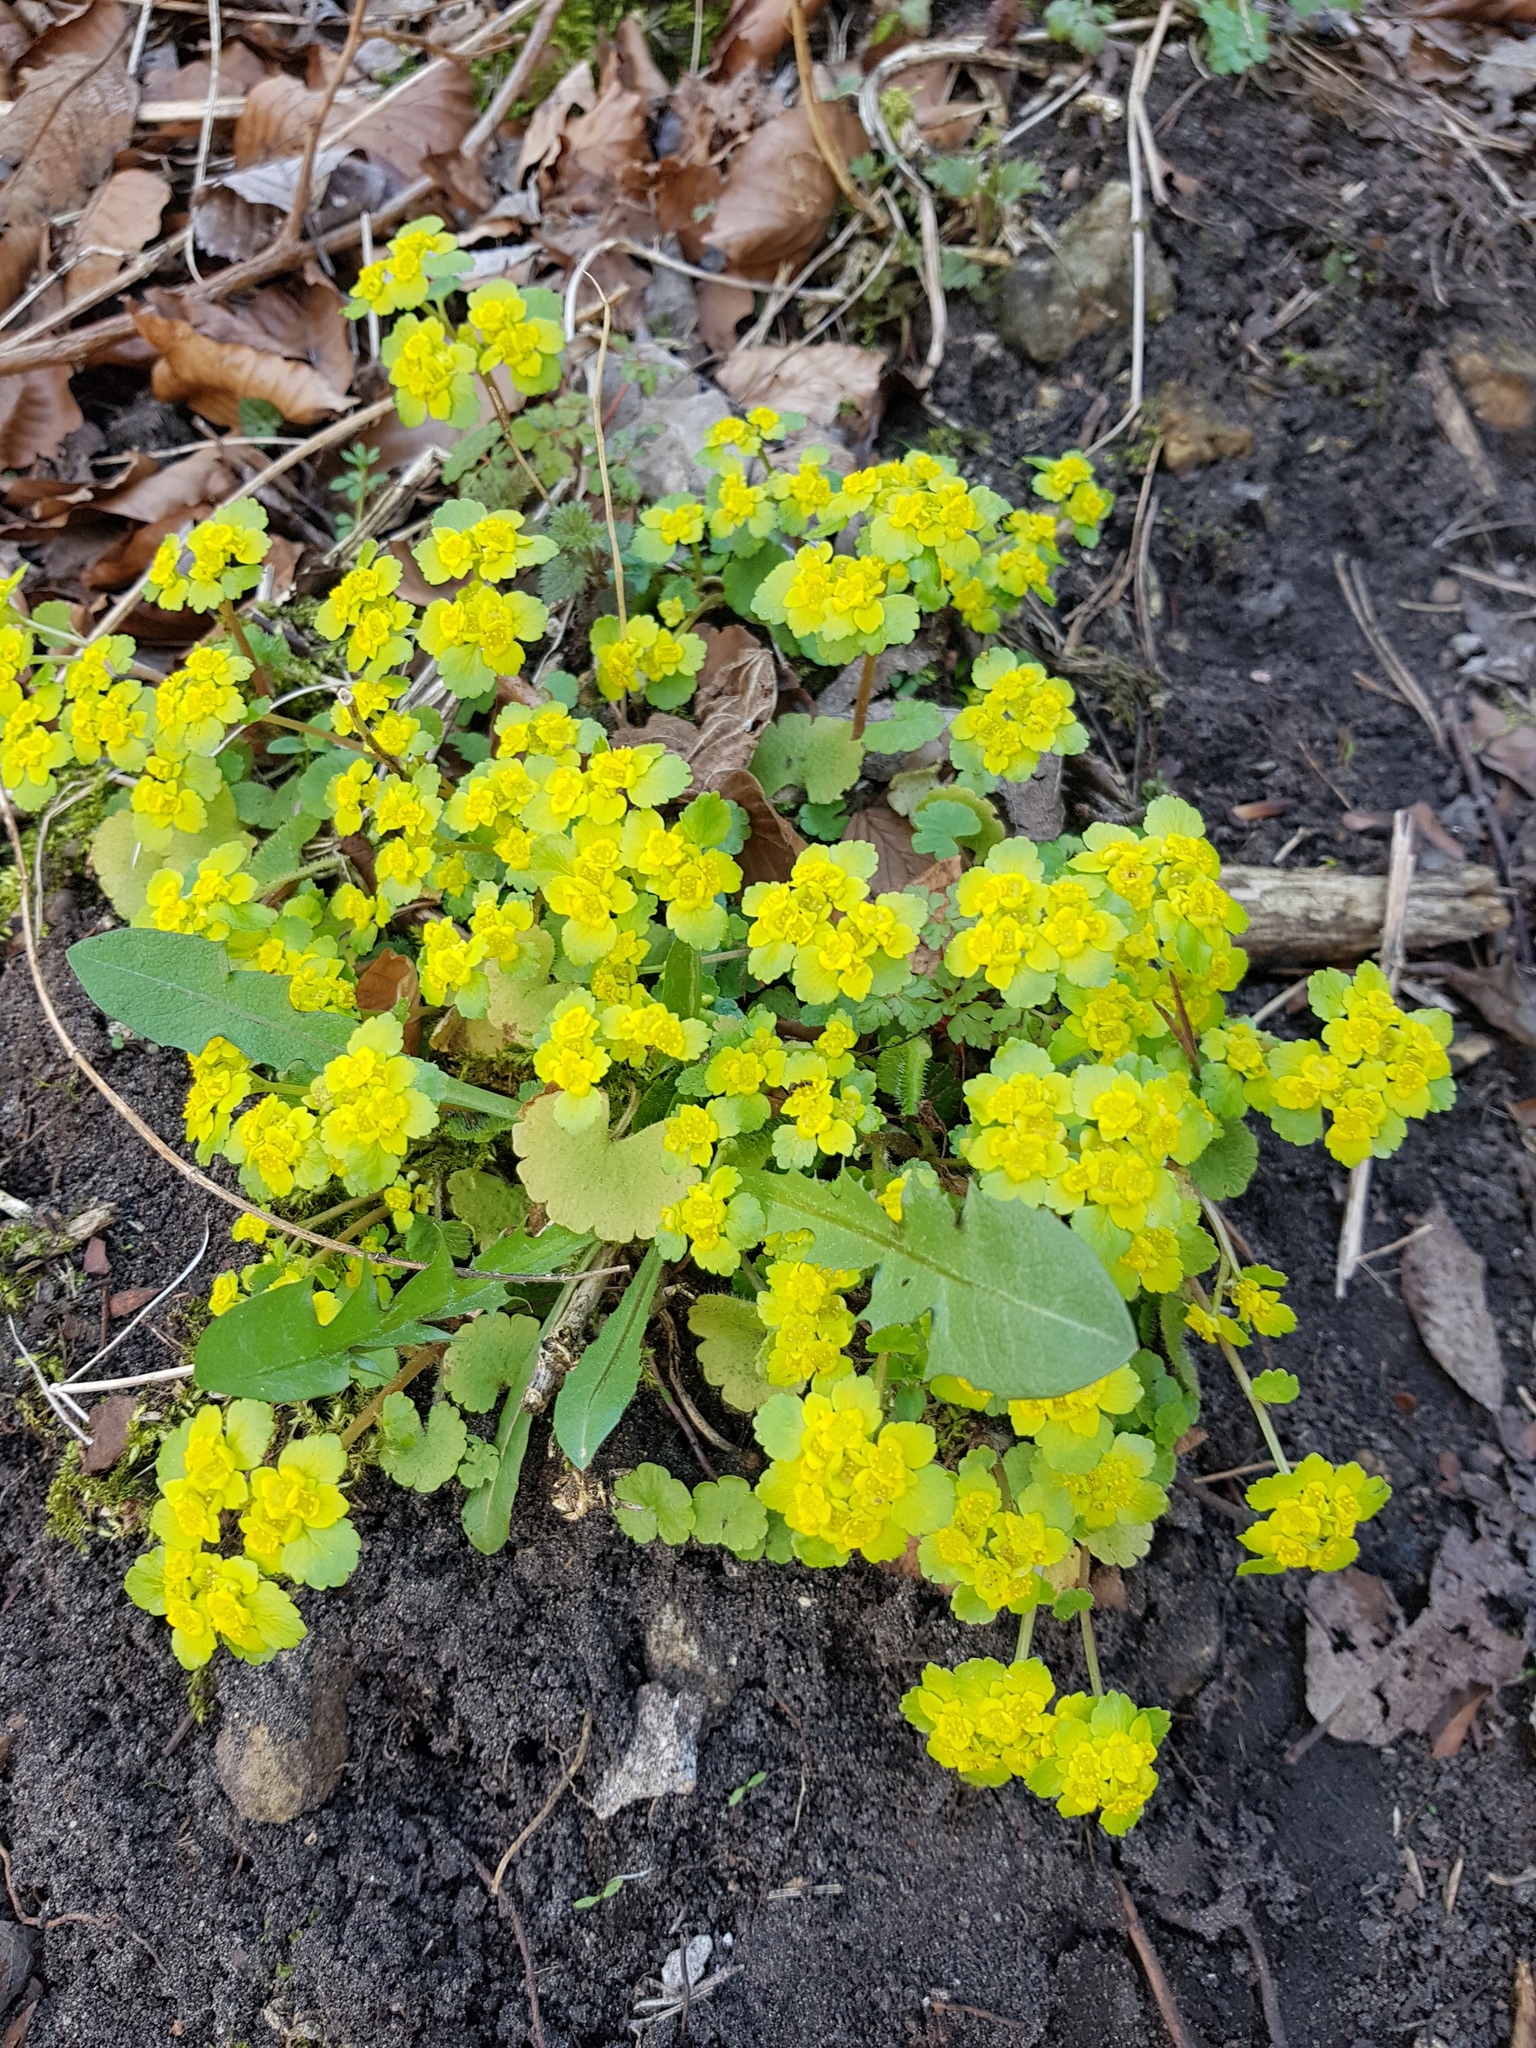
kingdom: Plantae
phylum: Tracheophyta
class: Magnoliopsida
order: Saxifragales
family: Saxifragaceae
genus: Chrysosplenium
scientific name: Chrysosplenium alternifolium
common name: Alternate-leaved golden-saxifrage
